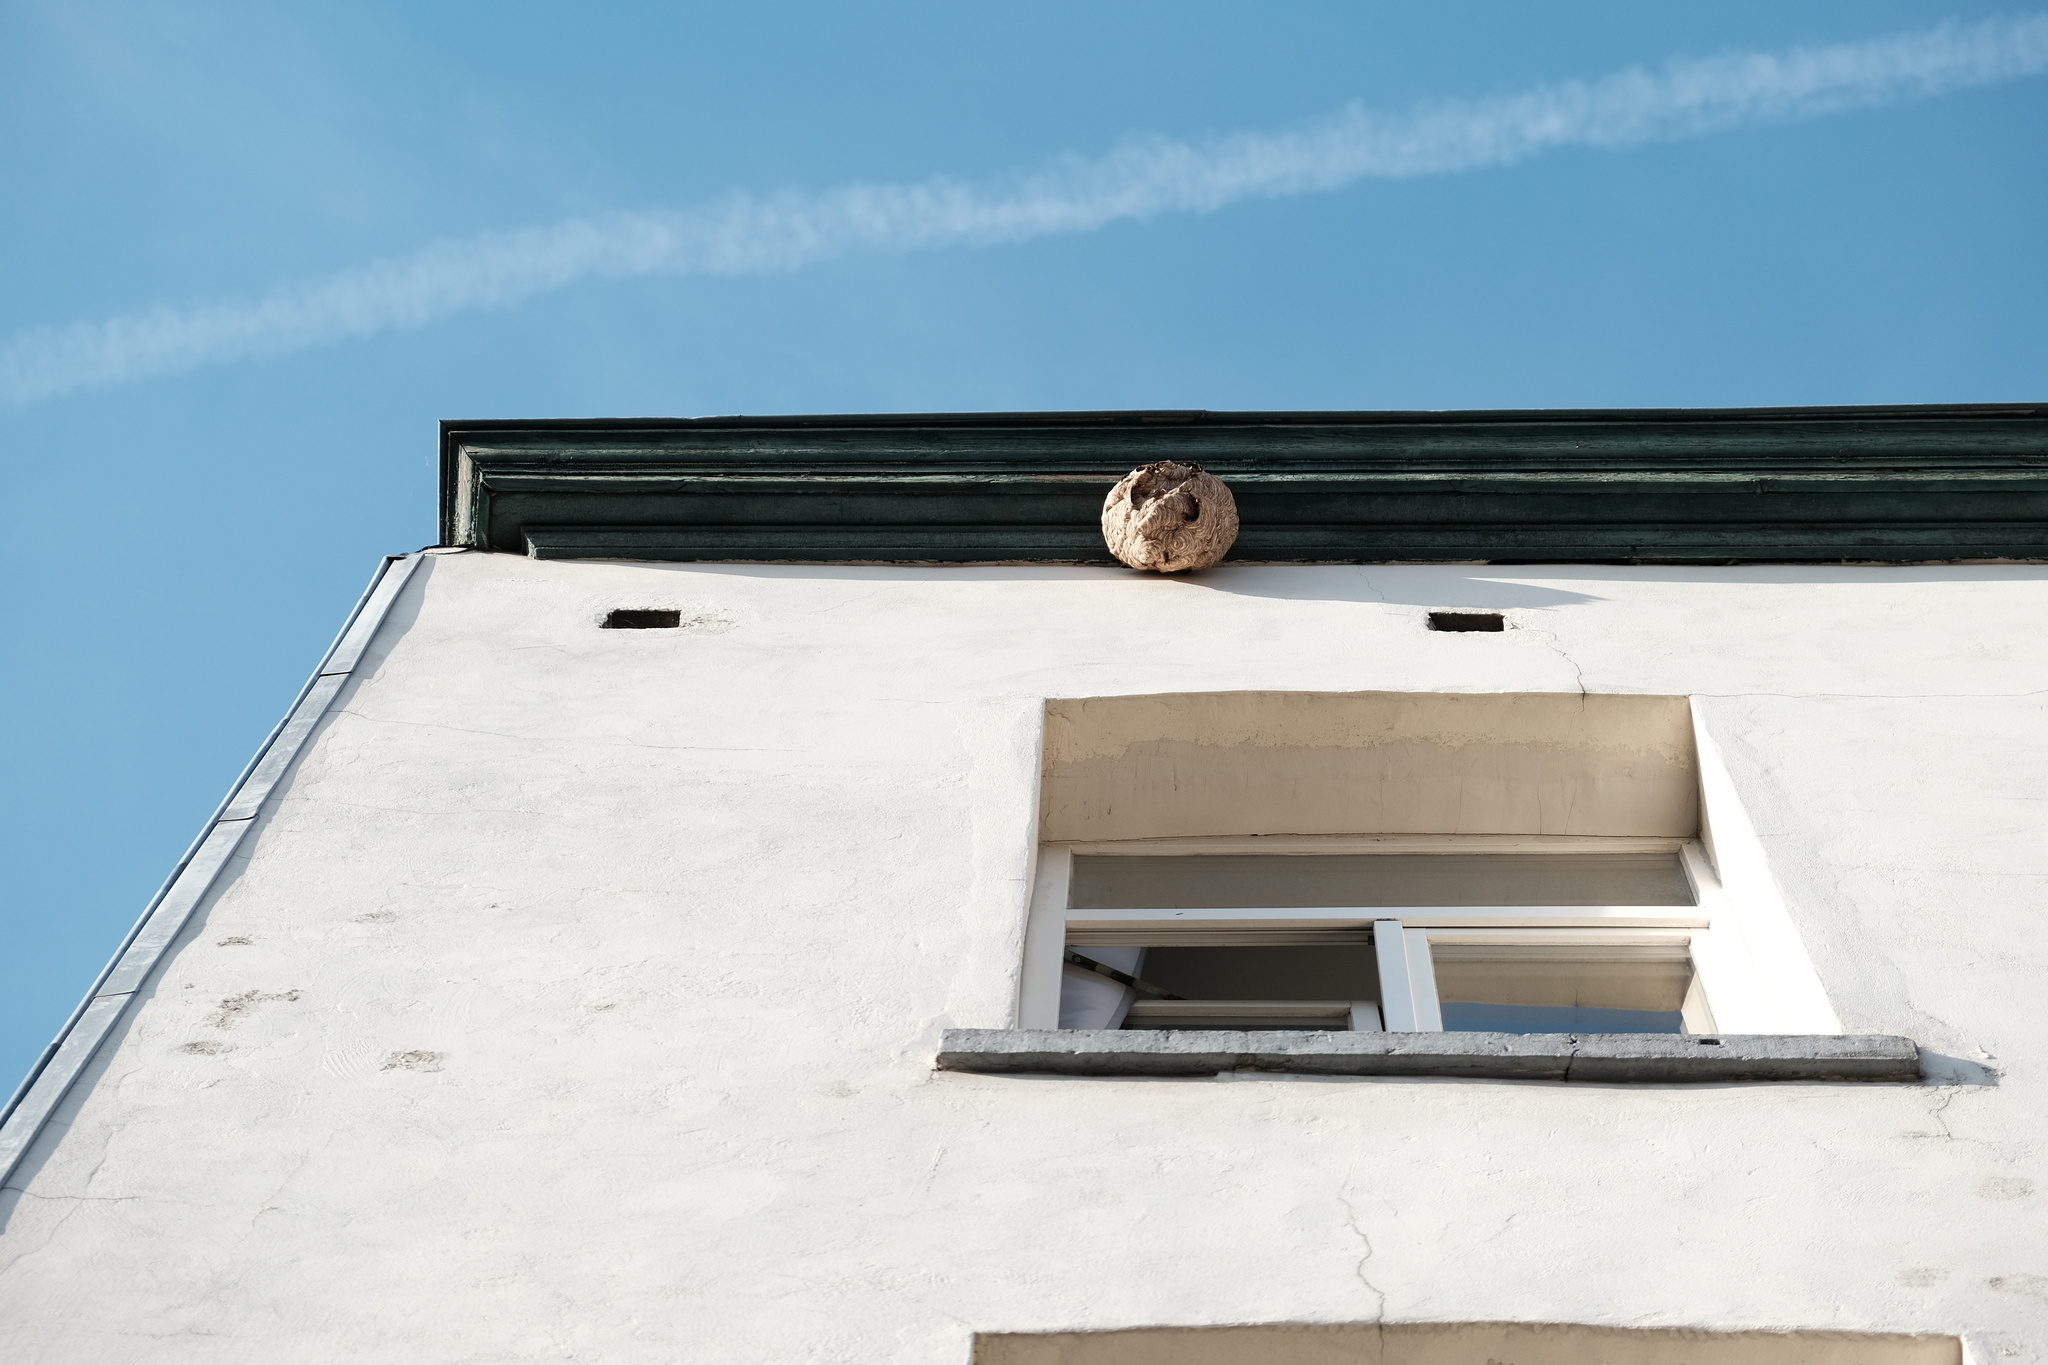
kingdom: Animalia
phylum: Arthropoda
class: Insecta
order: Hymenoptera
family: Vespidae
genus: Vespa
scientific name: Vespa velutina
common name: Asian hornet
